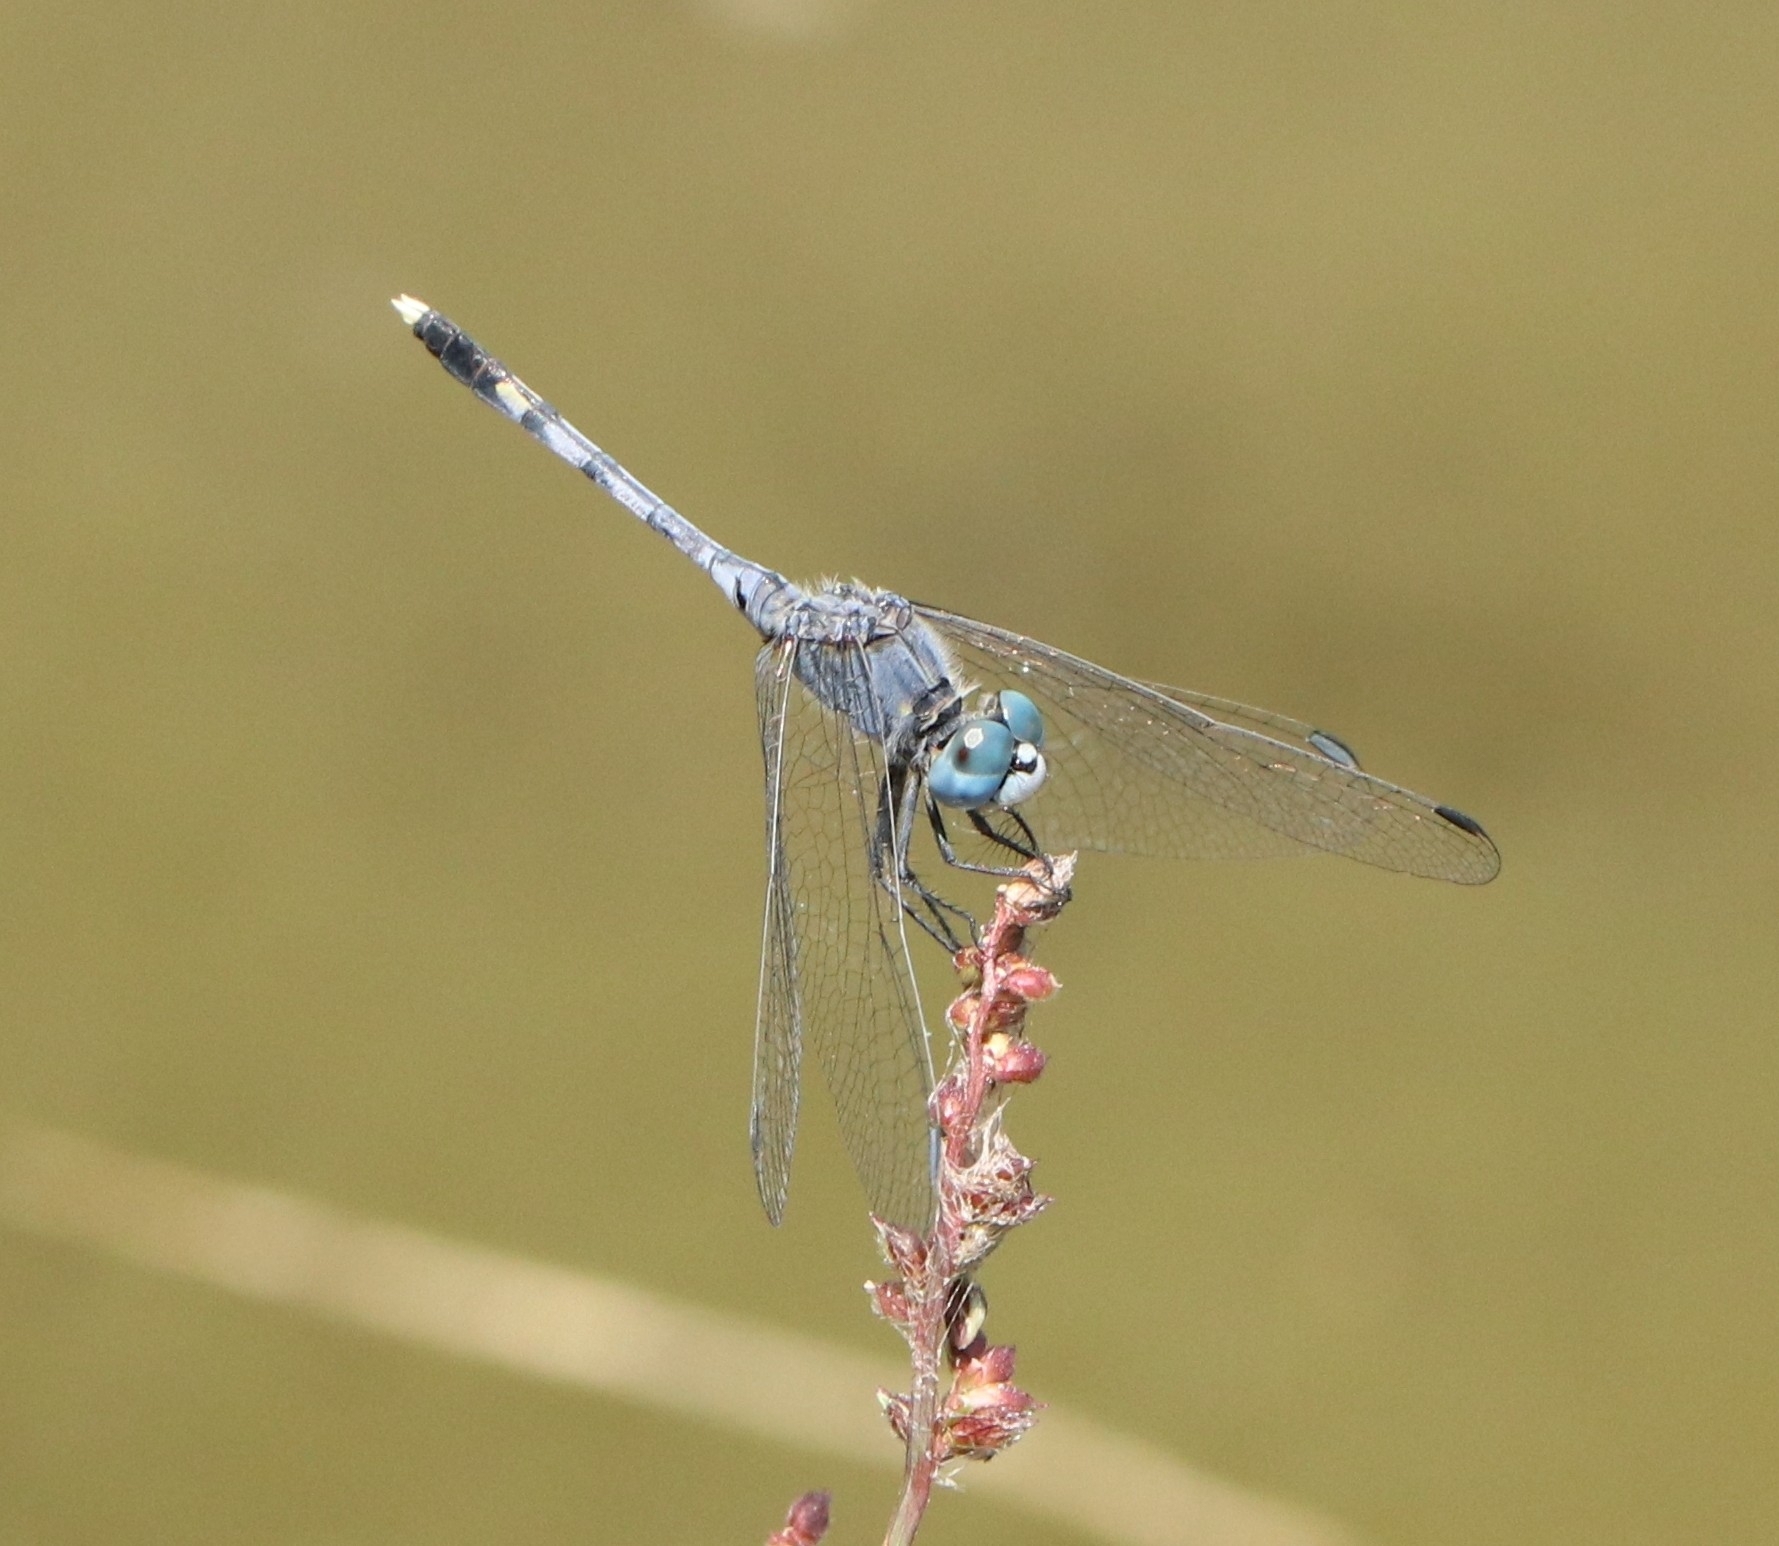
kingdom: Animalia
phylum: Arthropoda
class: Insecta
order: Odonata
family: Libellulidae
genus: Diplacodes
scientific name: Diplacodes trivialis
